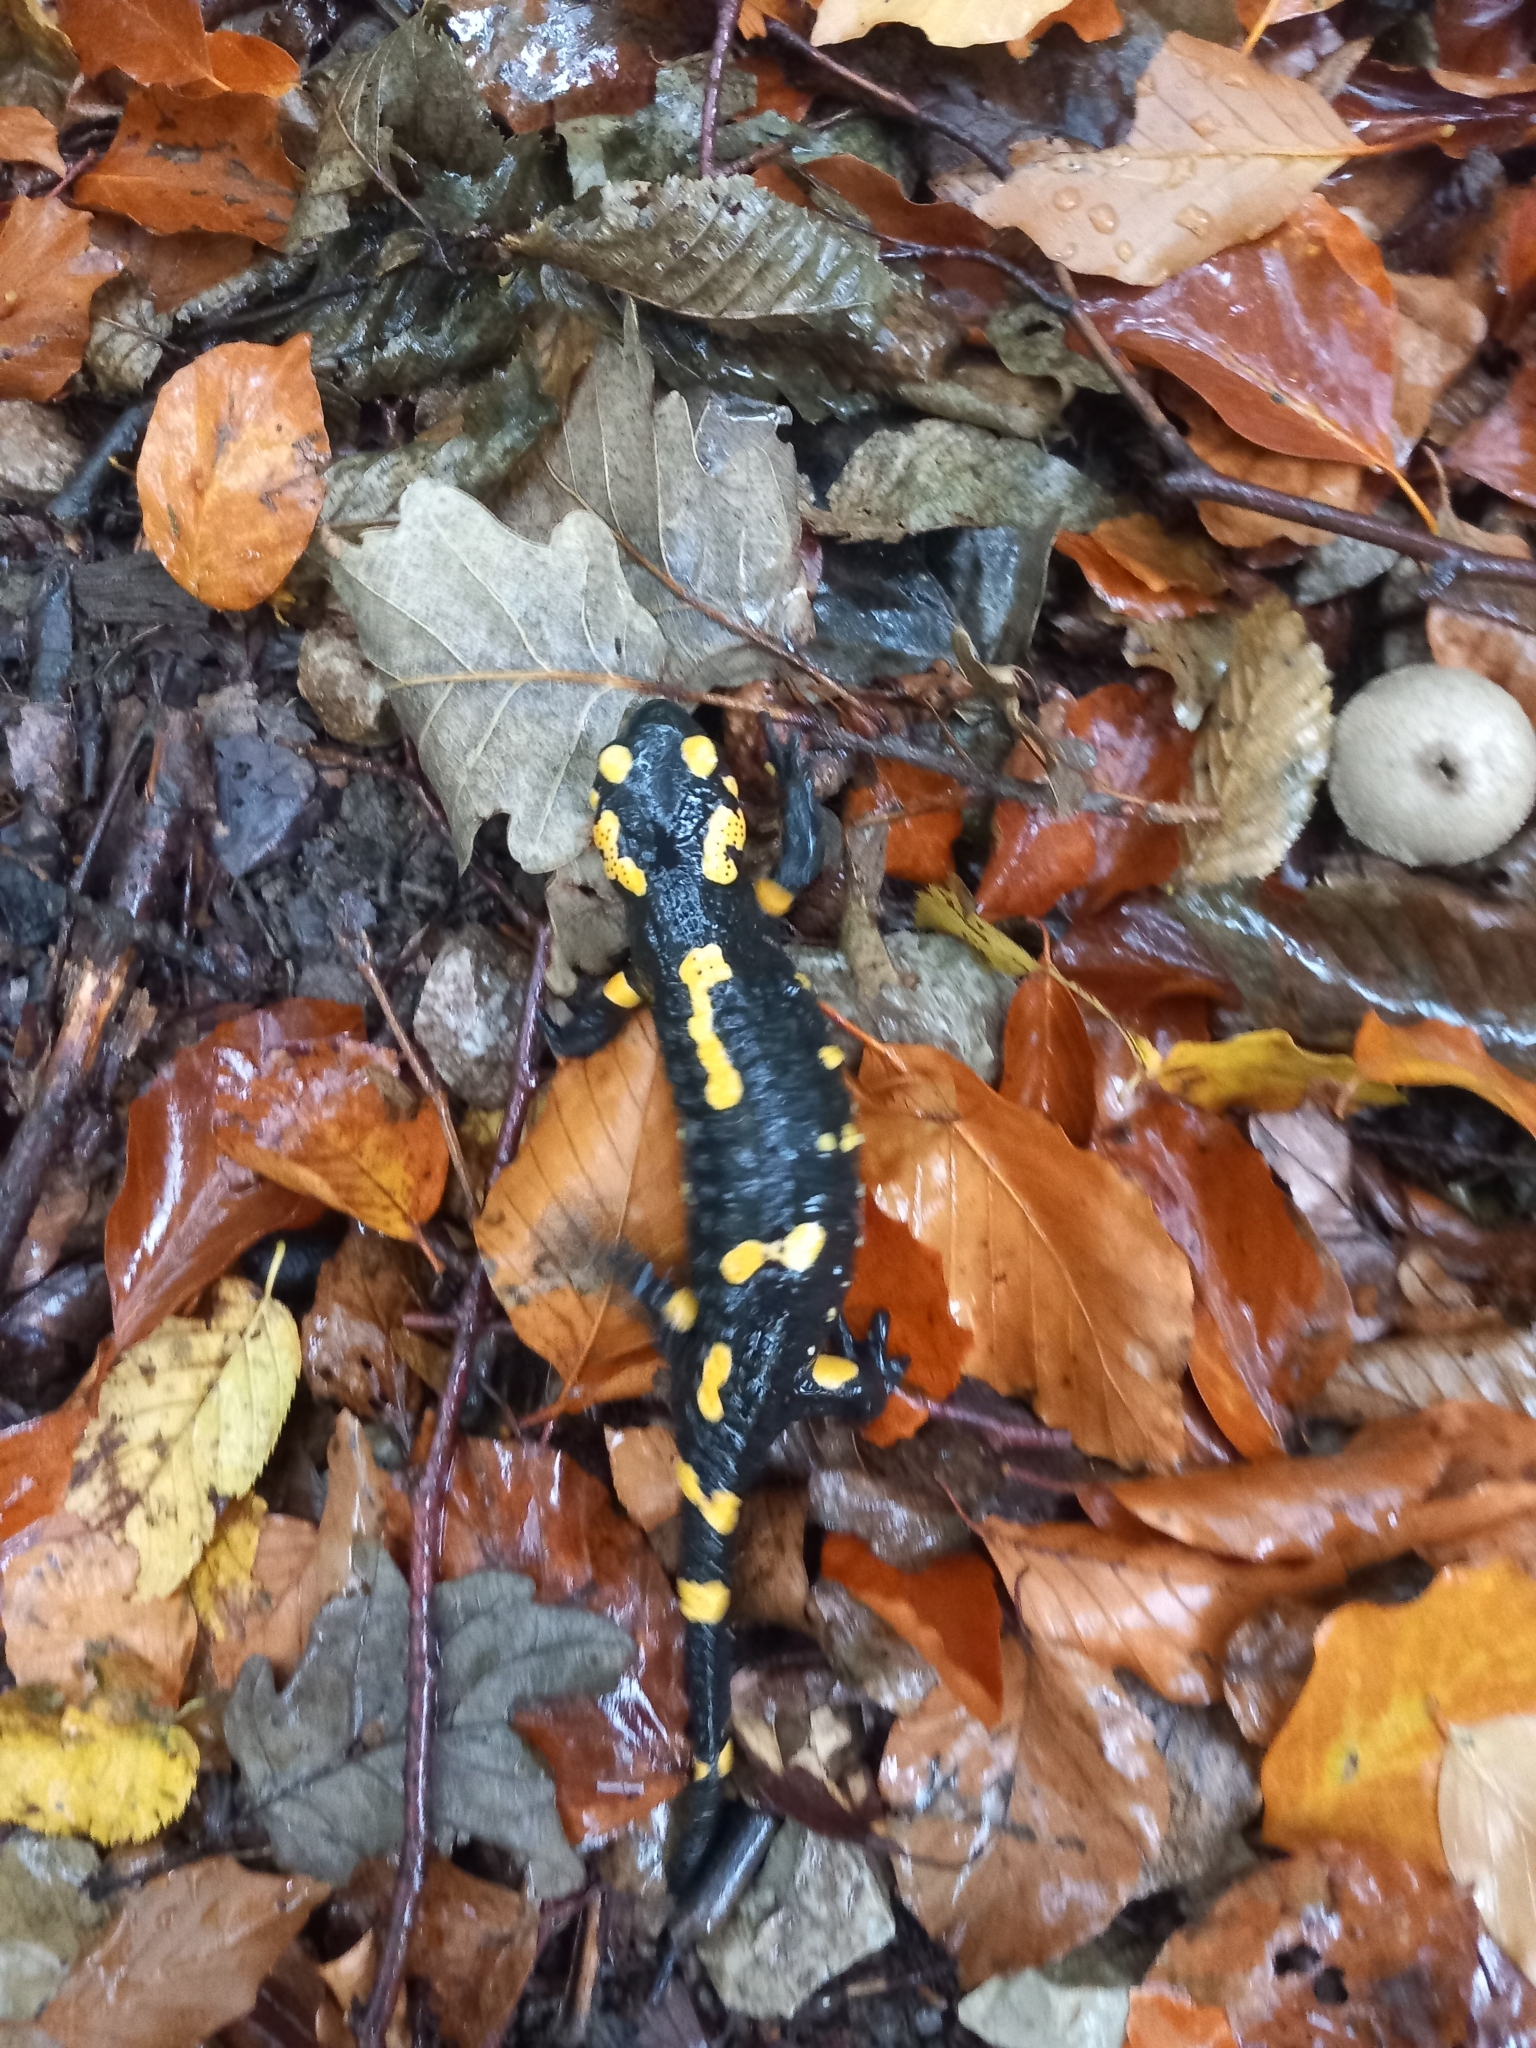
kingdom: Animalia
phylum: Chordata
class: Amphibia
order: Caudata
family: Salamandridae
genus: Salamandra
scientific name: Salamandra salamandra
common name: Fire salamander
